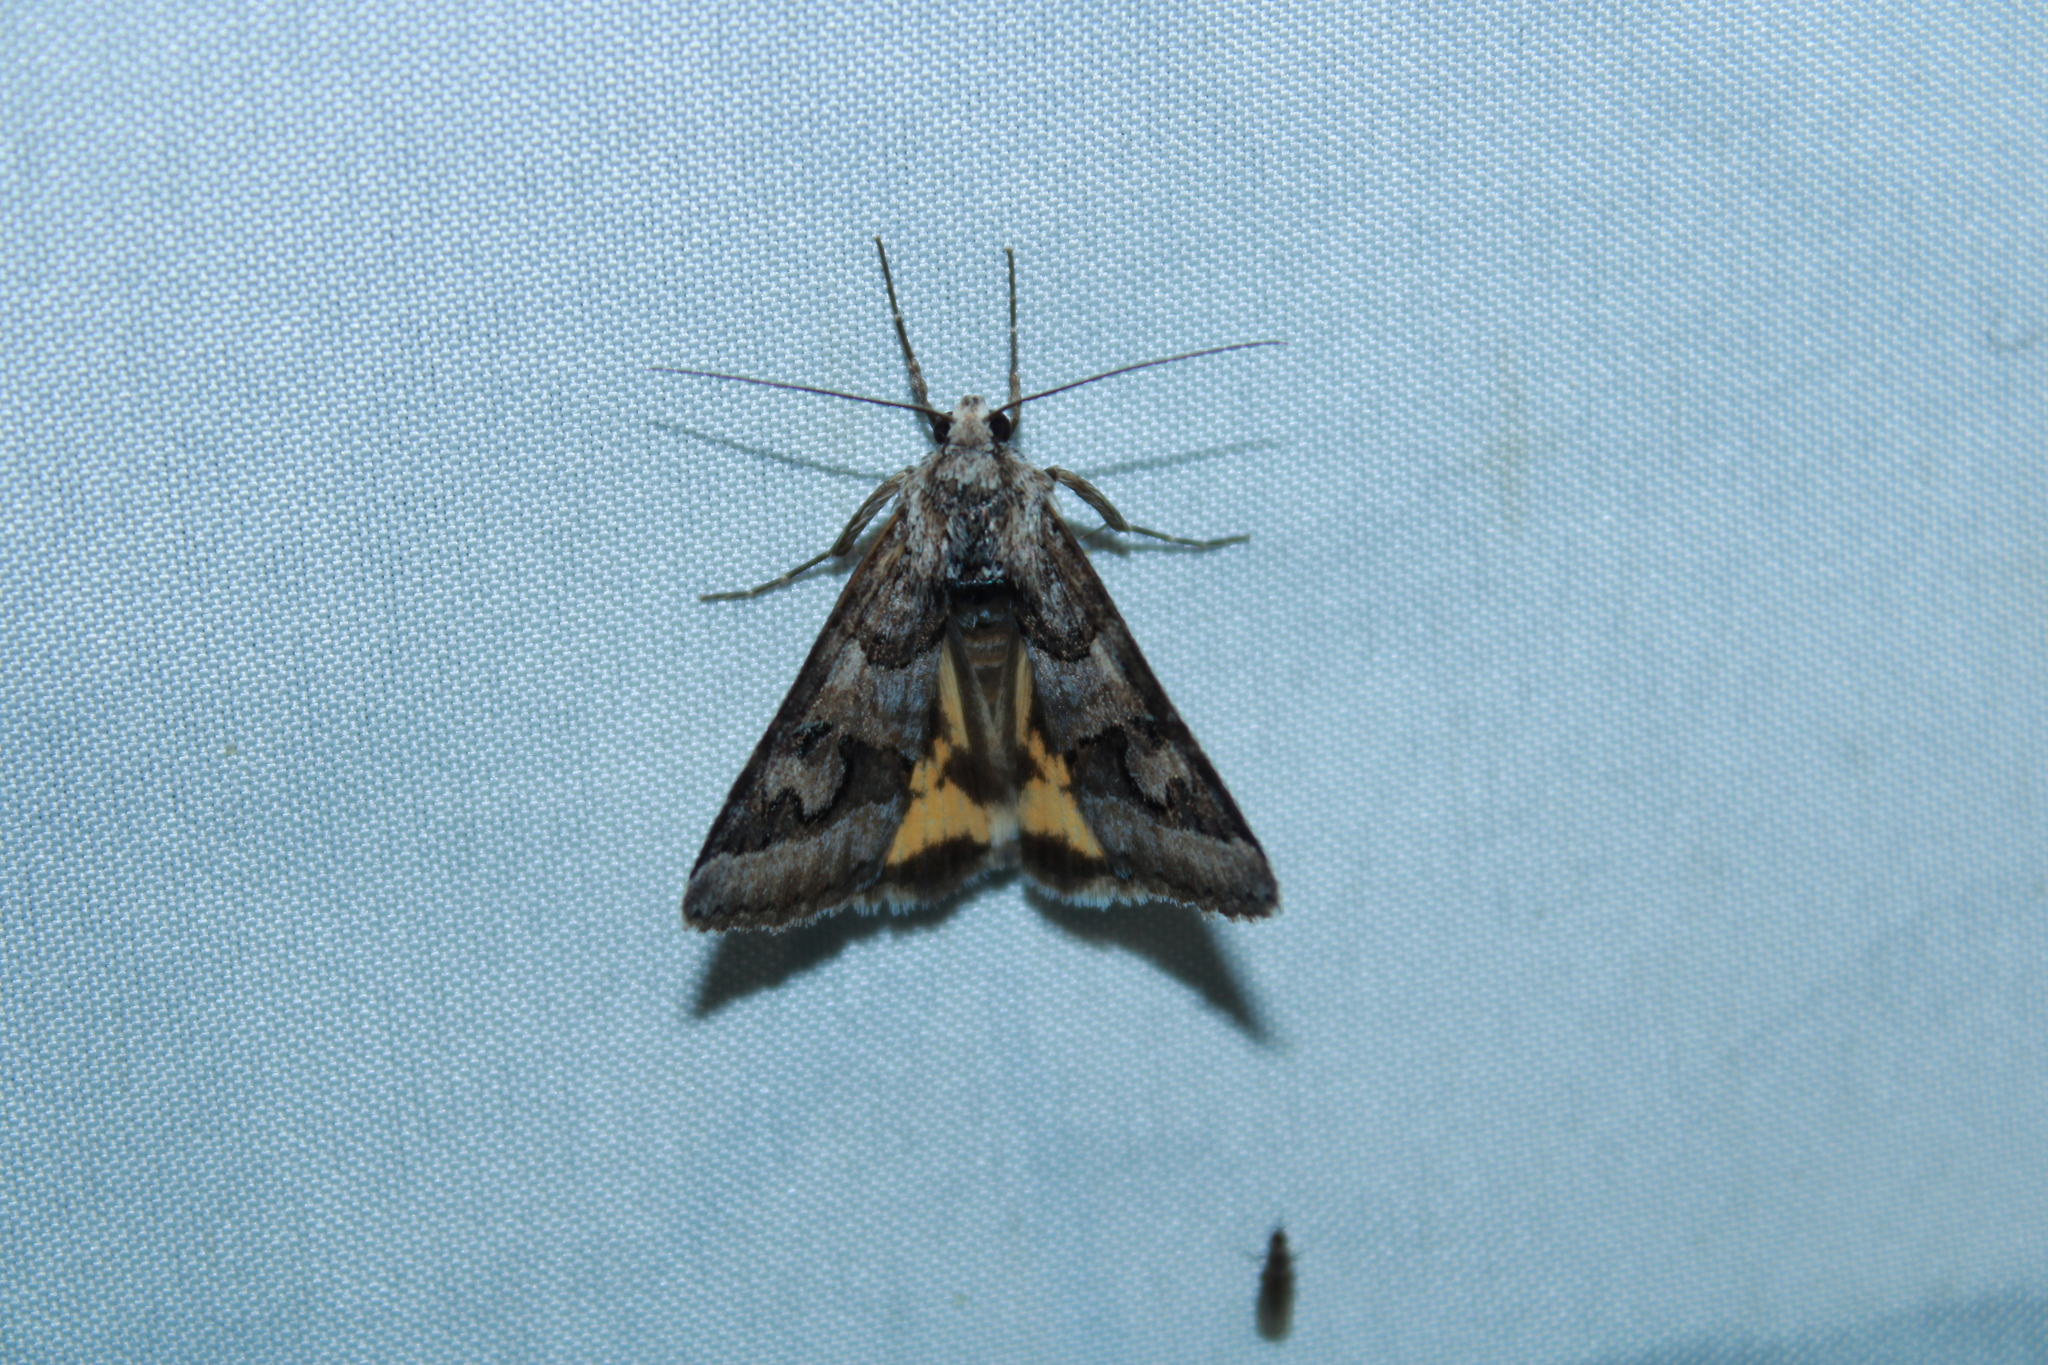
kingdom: Animalia
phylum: Arthropoda
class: Insecta
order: Lepidoptera
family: Erebidae
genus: Drasteria
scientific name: Drasteria graphica
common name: Coastal graphic
